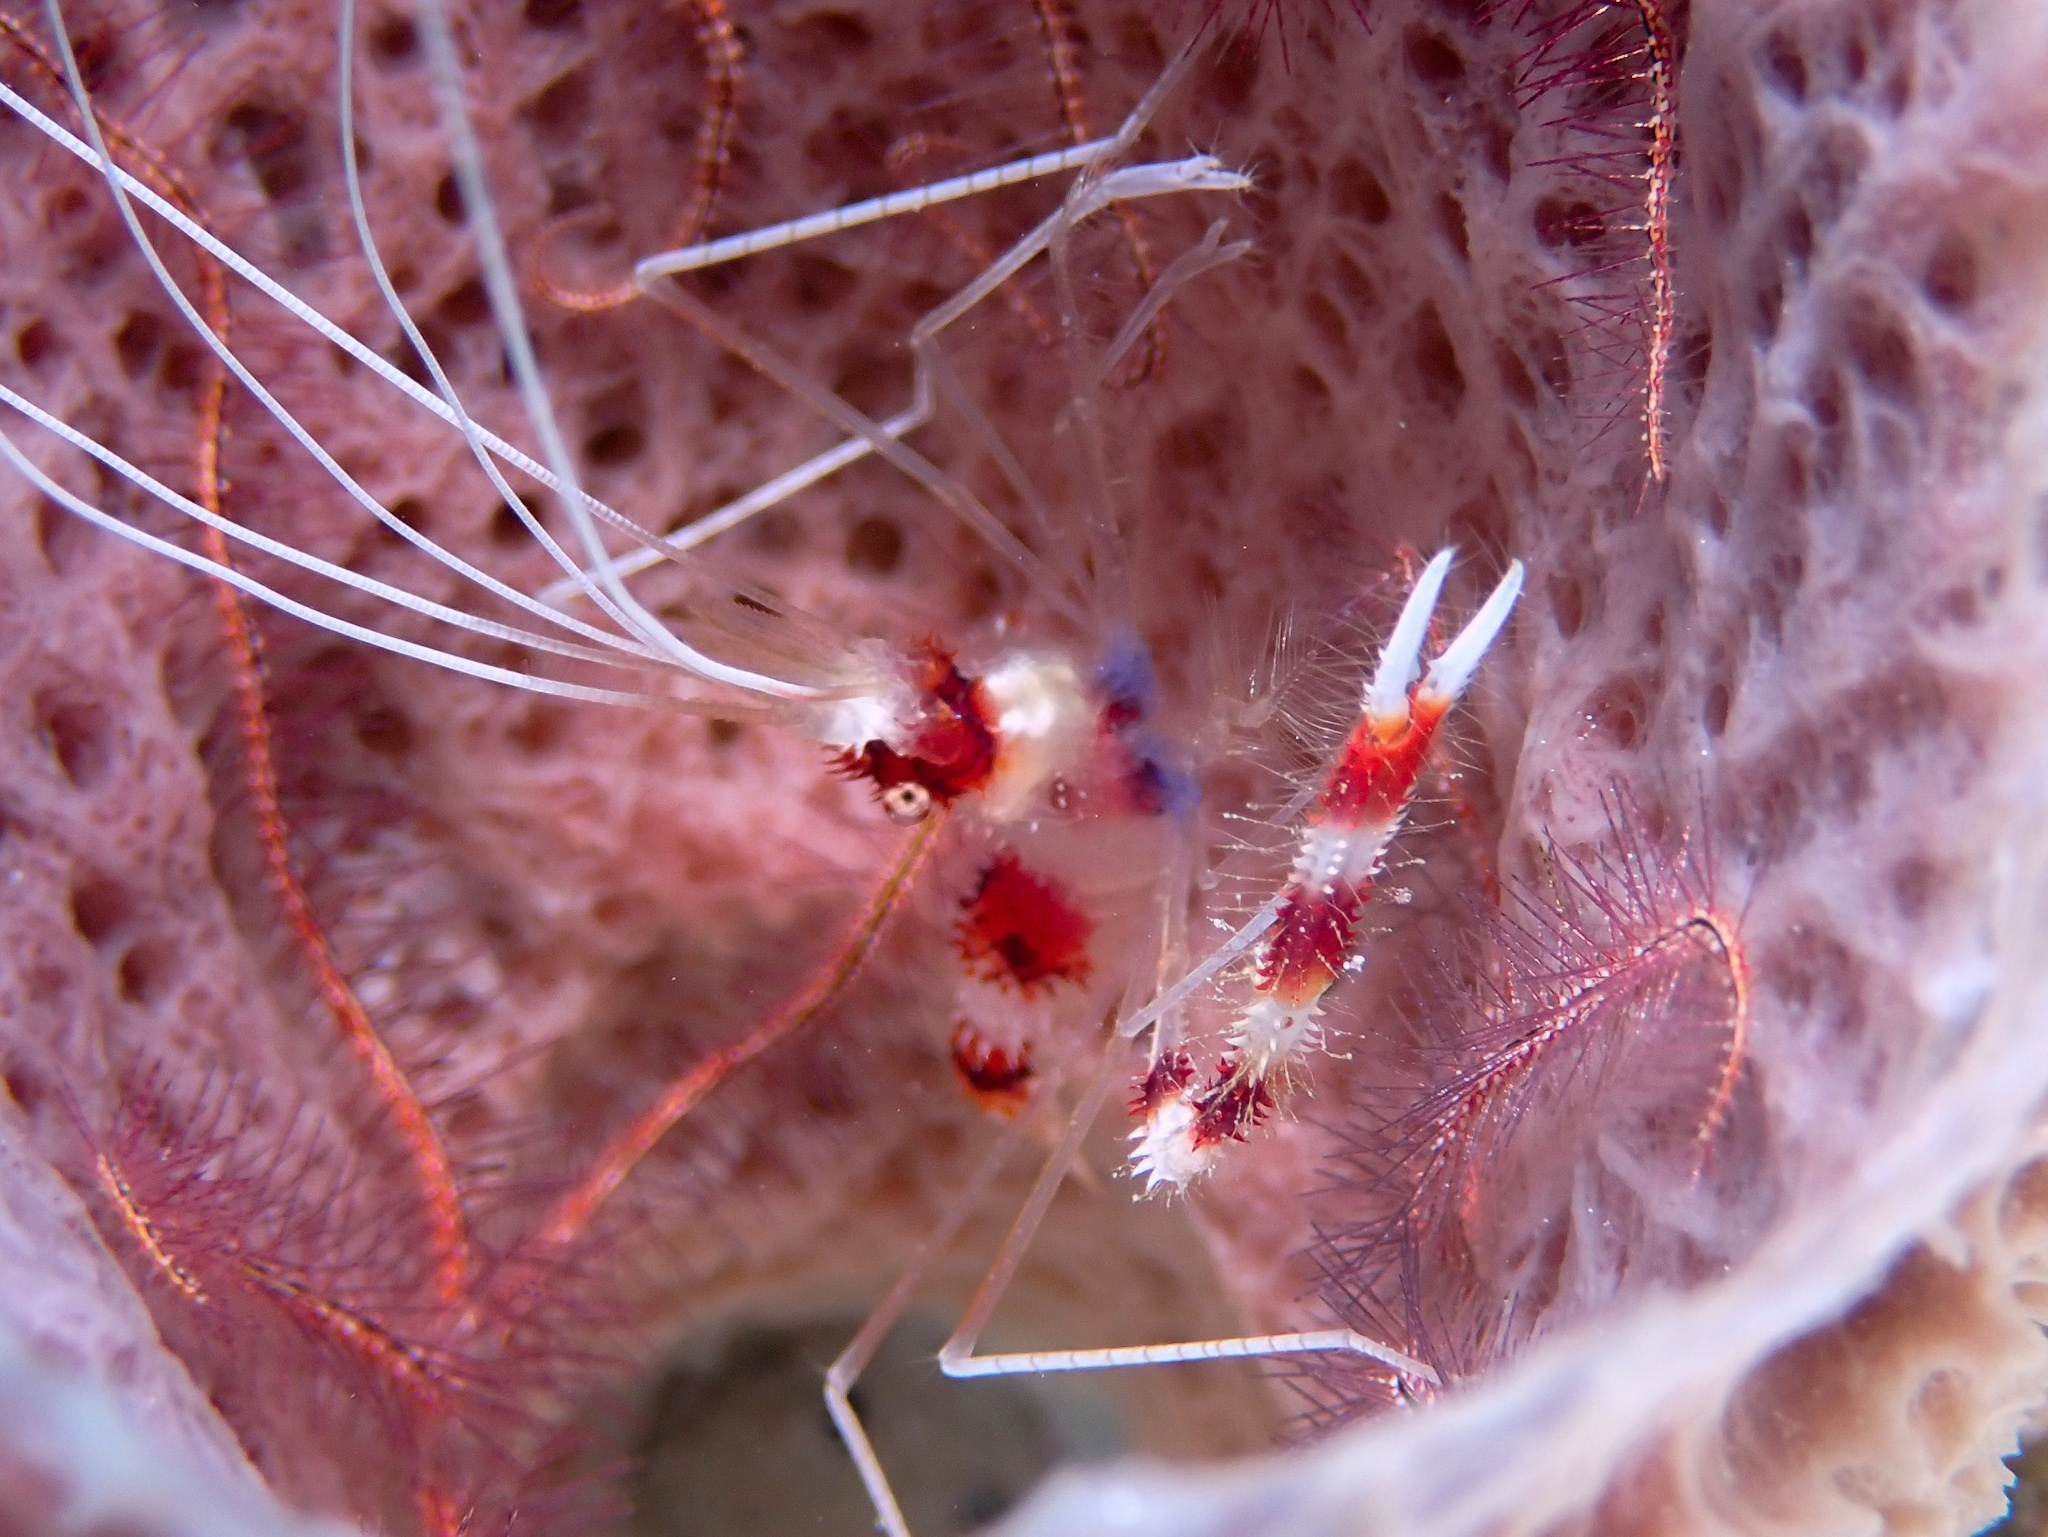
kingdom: Animalia
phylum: Arthropoda
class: Malacostraca
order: Decapoda
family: Stenopodidae
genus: Stenopus
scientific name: Stenopus hispidus
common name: Banded coral shrimp
